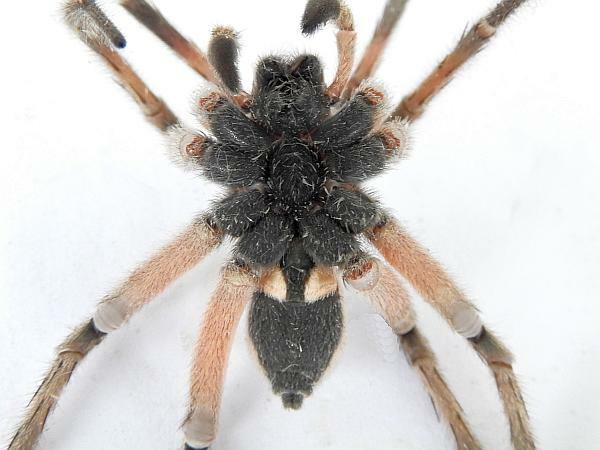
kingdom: Animalia
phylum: Arthropoda
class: Arachnida
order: Araneae
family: Lycosidae
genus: Hogna
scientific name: Hogna osceola
